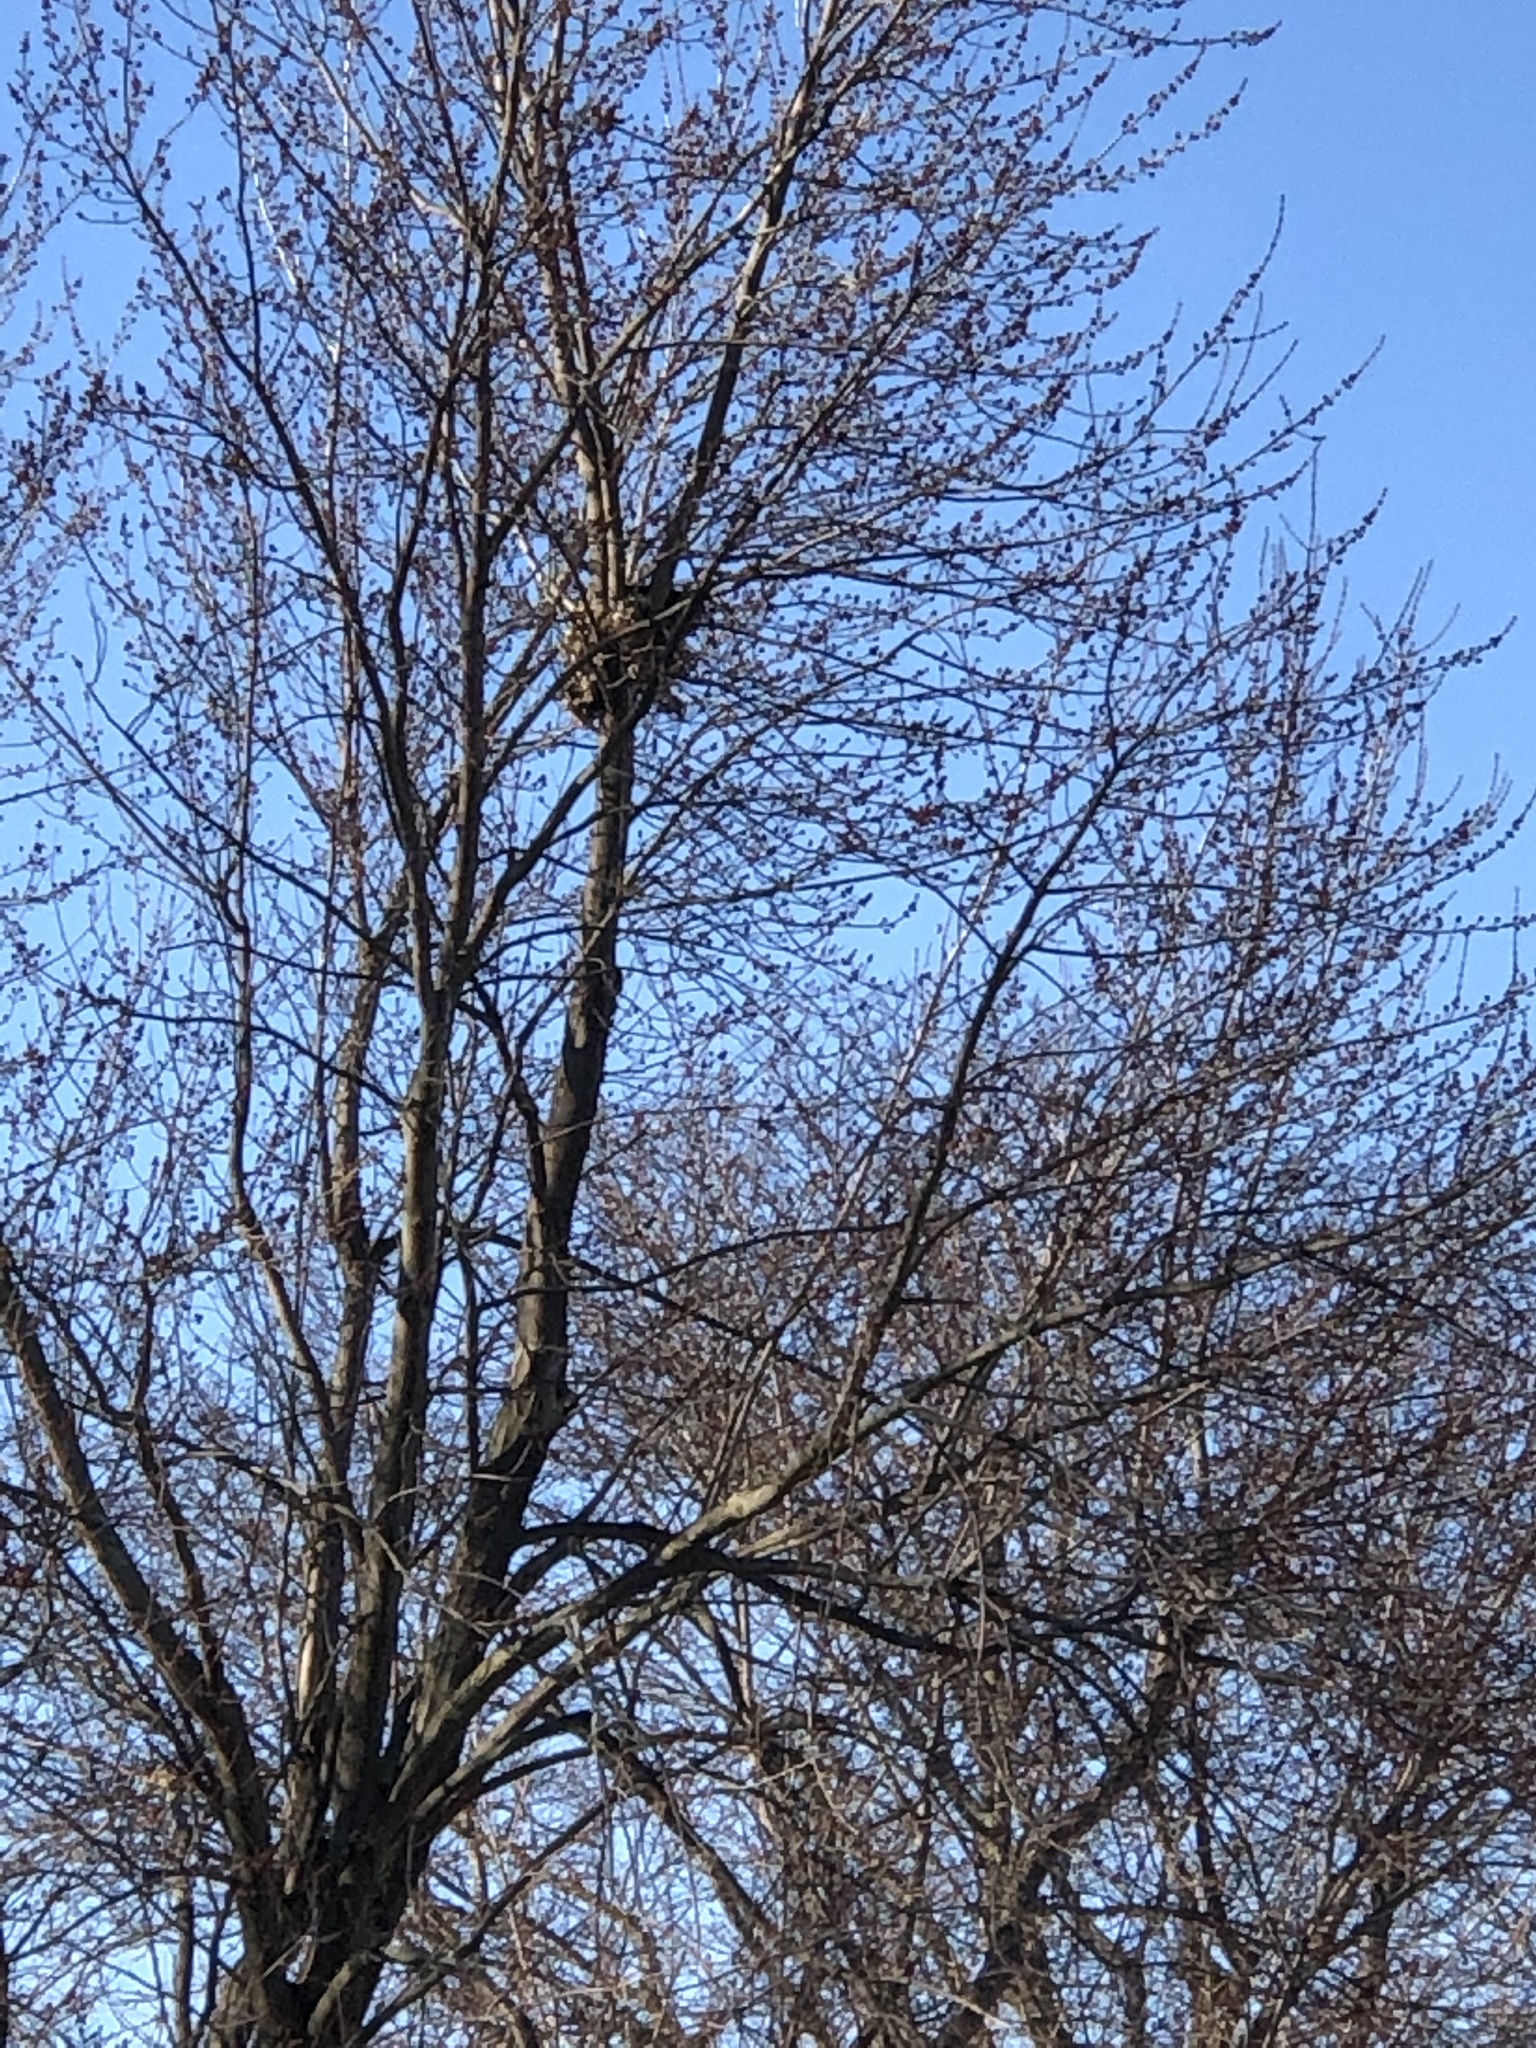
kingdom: Animalia
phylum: Chordata
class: Mammalia
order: Rodentia
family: Sciuridae
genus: Sciurus
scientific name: Sciurus carolinensis
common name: Eastern gray squirrel
